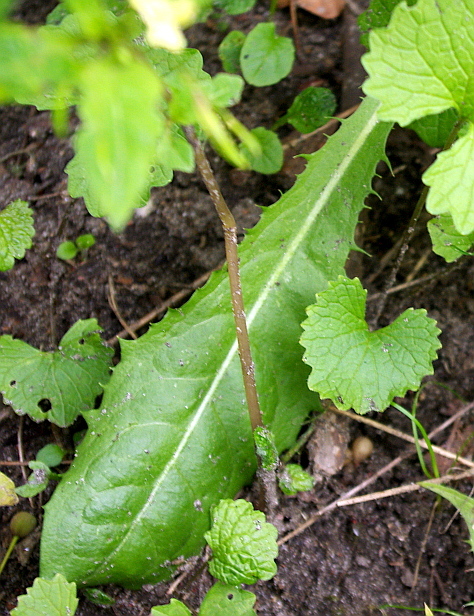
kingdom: Plantae
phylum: Tracheophyta
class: Magnoliopsida
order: Asterales
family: Asteraceae
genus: Taraxacum
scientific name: Taraxacum officinale
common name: Common dandelion
